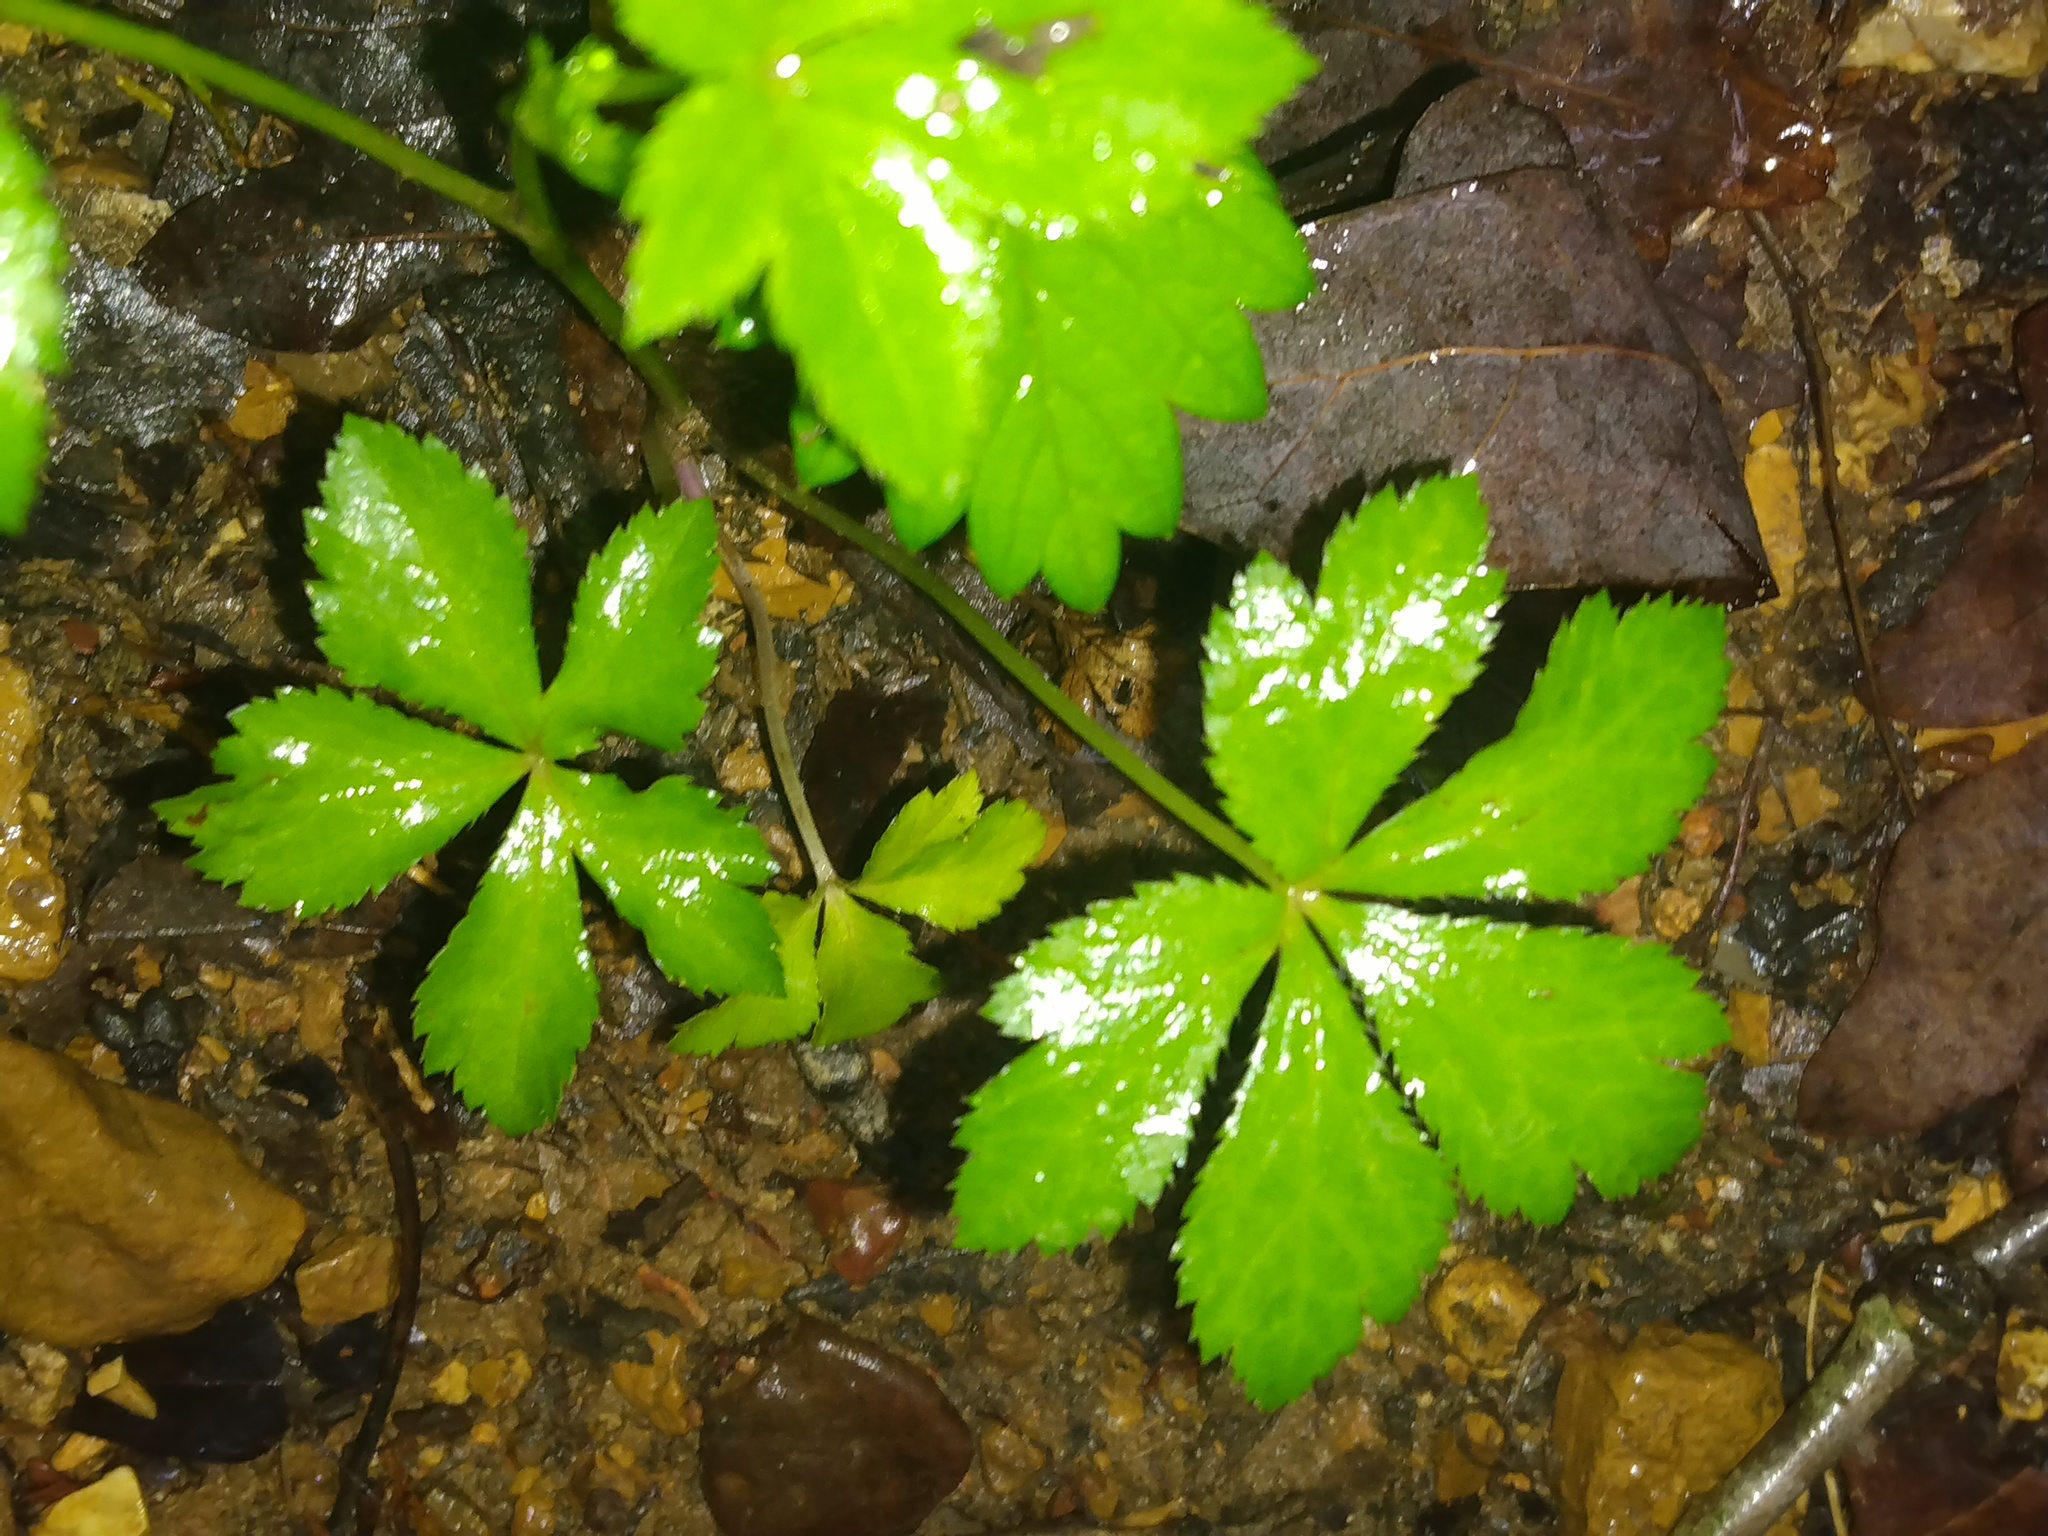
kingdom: Plantae
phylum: Tracheophyta
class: Magnoliopsida
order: Apiales
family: Apiaceae
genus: Sanicula
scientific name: Sanicula canadensis
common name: Canada sanicle
